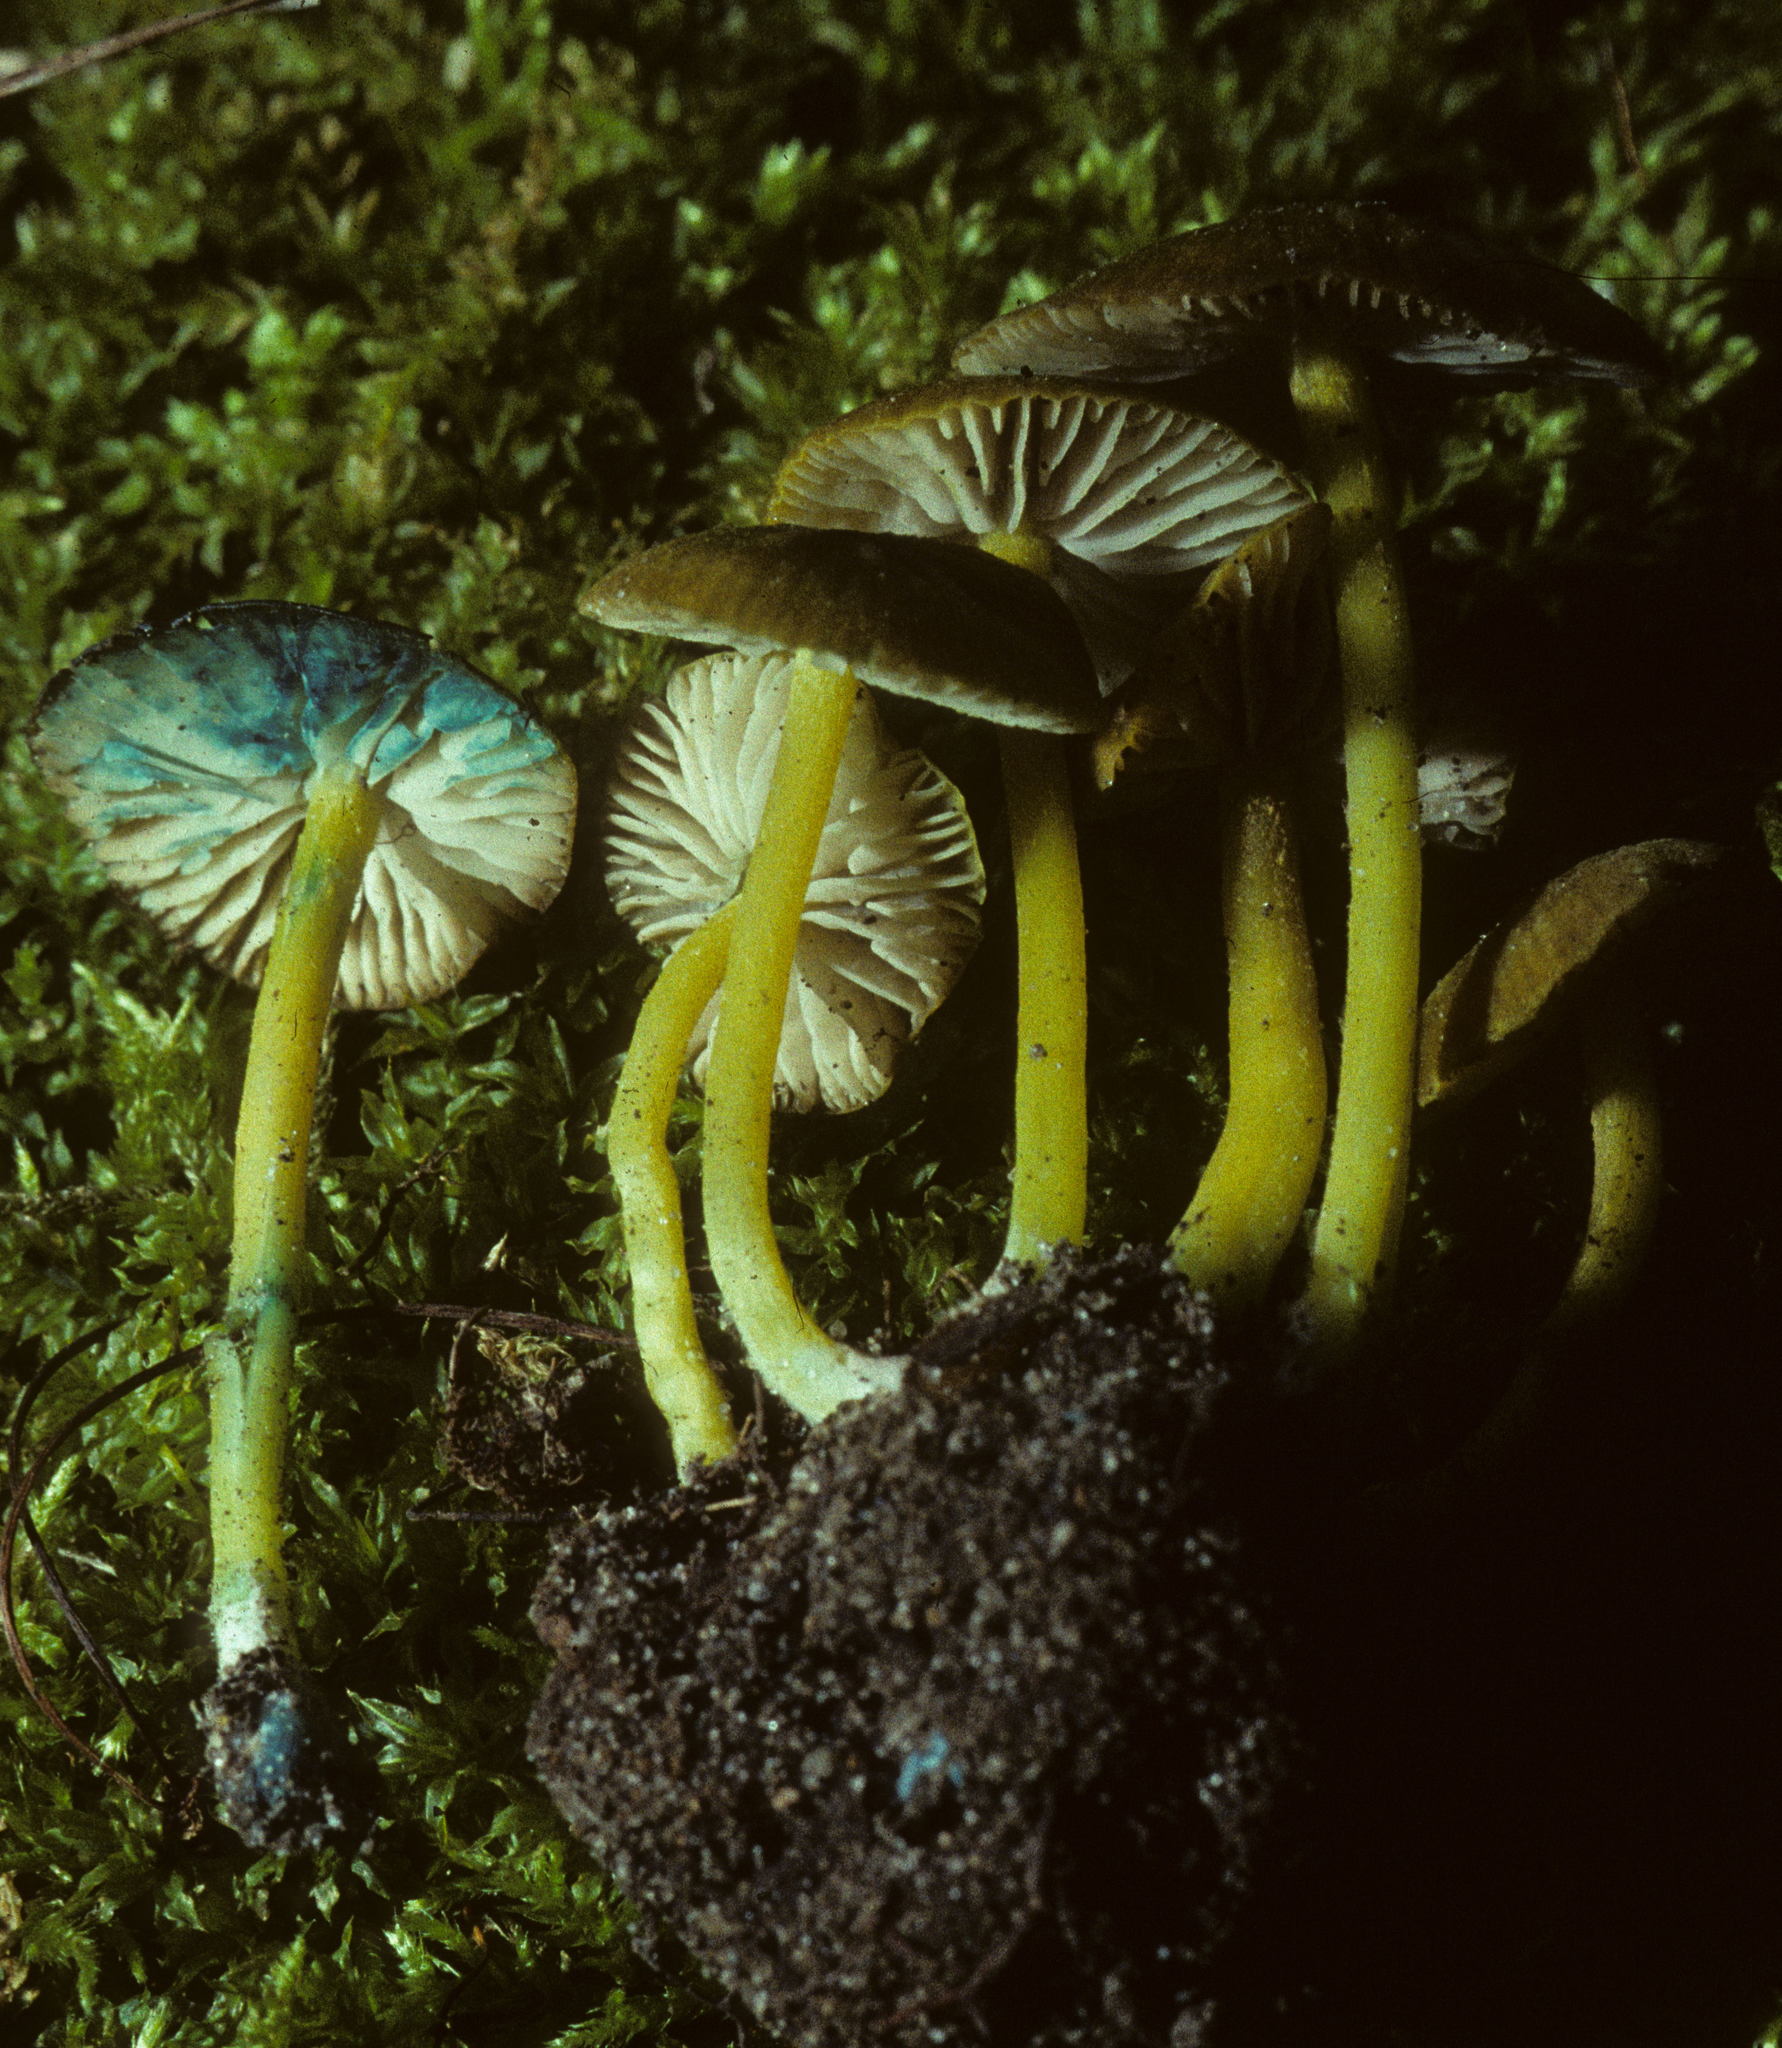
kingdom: Fungi
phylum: Basidiomycota
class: Agaricomycetes
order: Agaricales
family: Entolomataceae
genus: Entoloma
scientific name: Entoloma incanum
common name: Mousepee pinkgill
